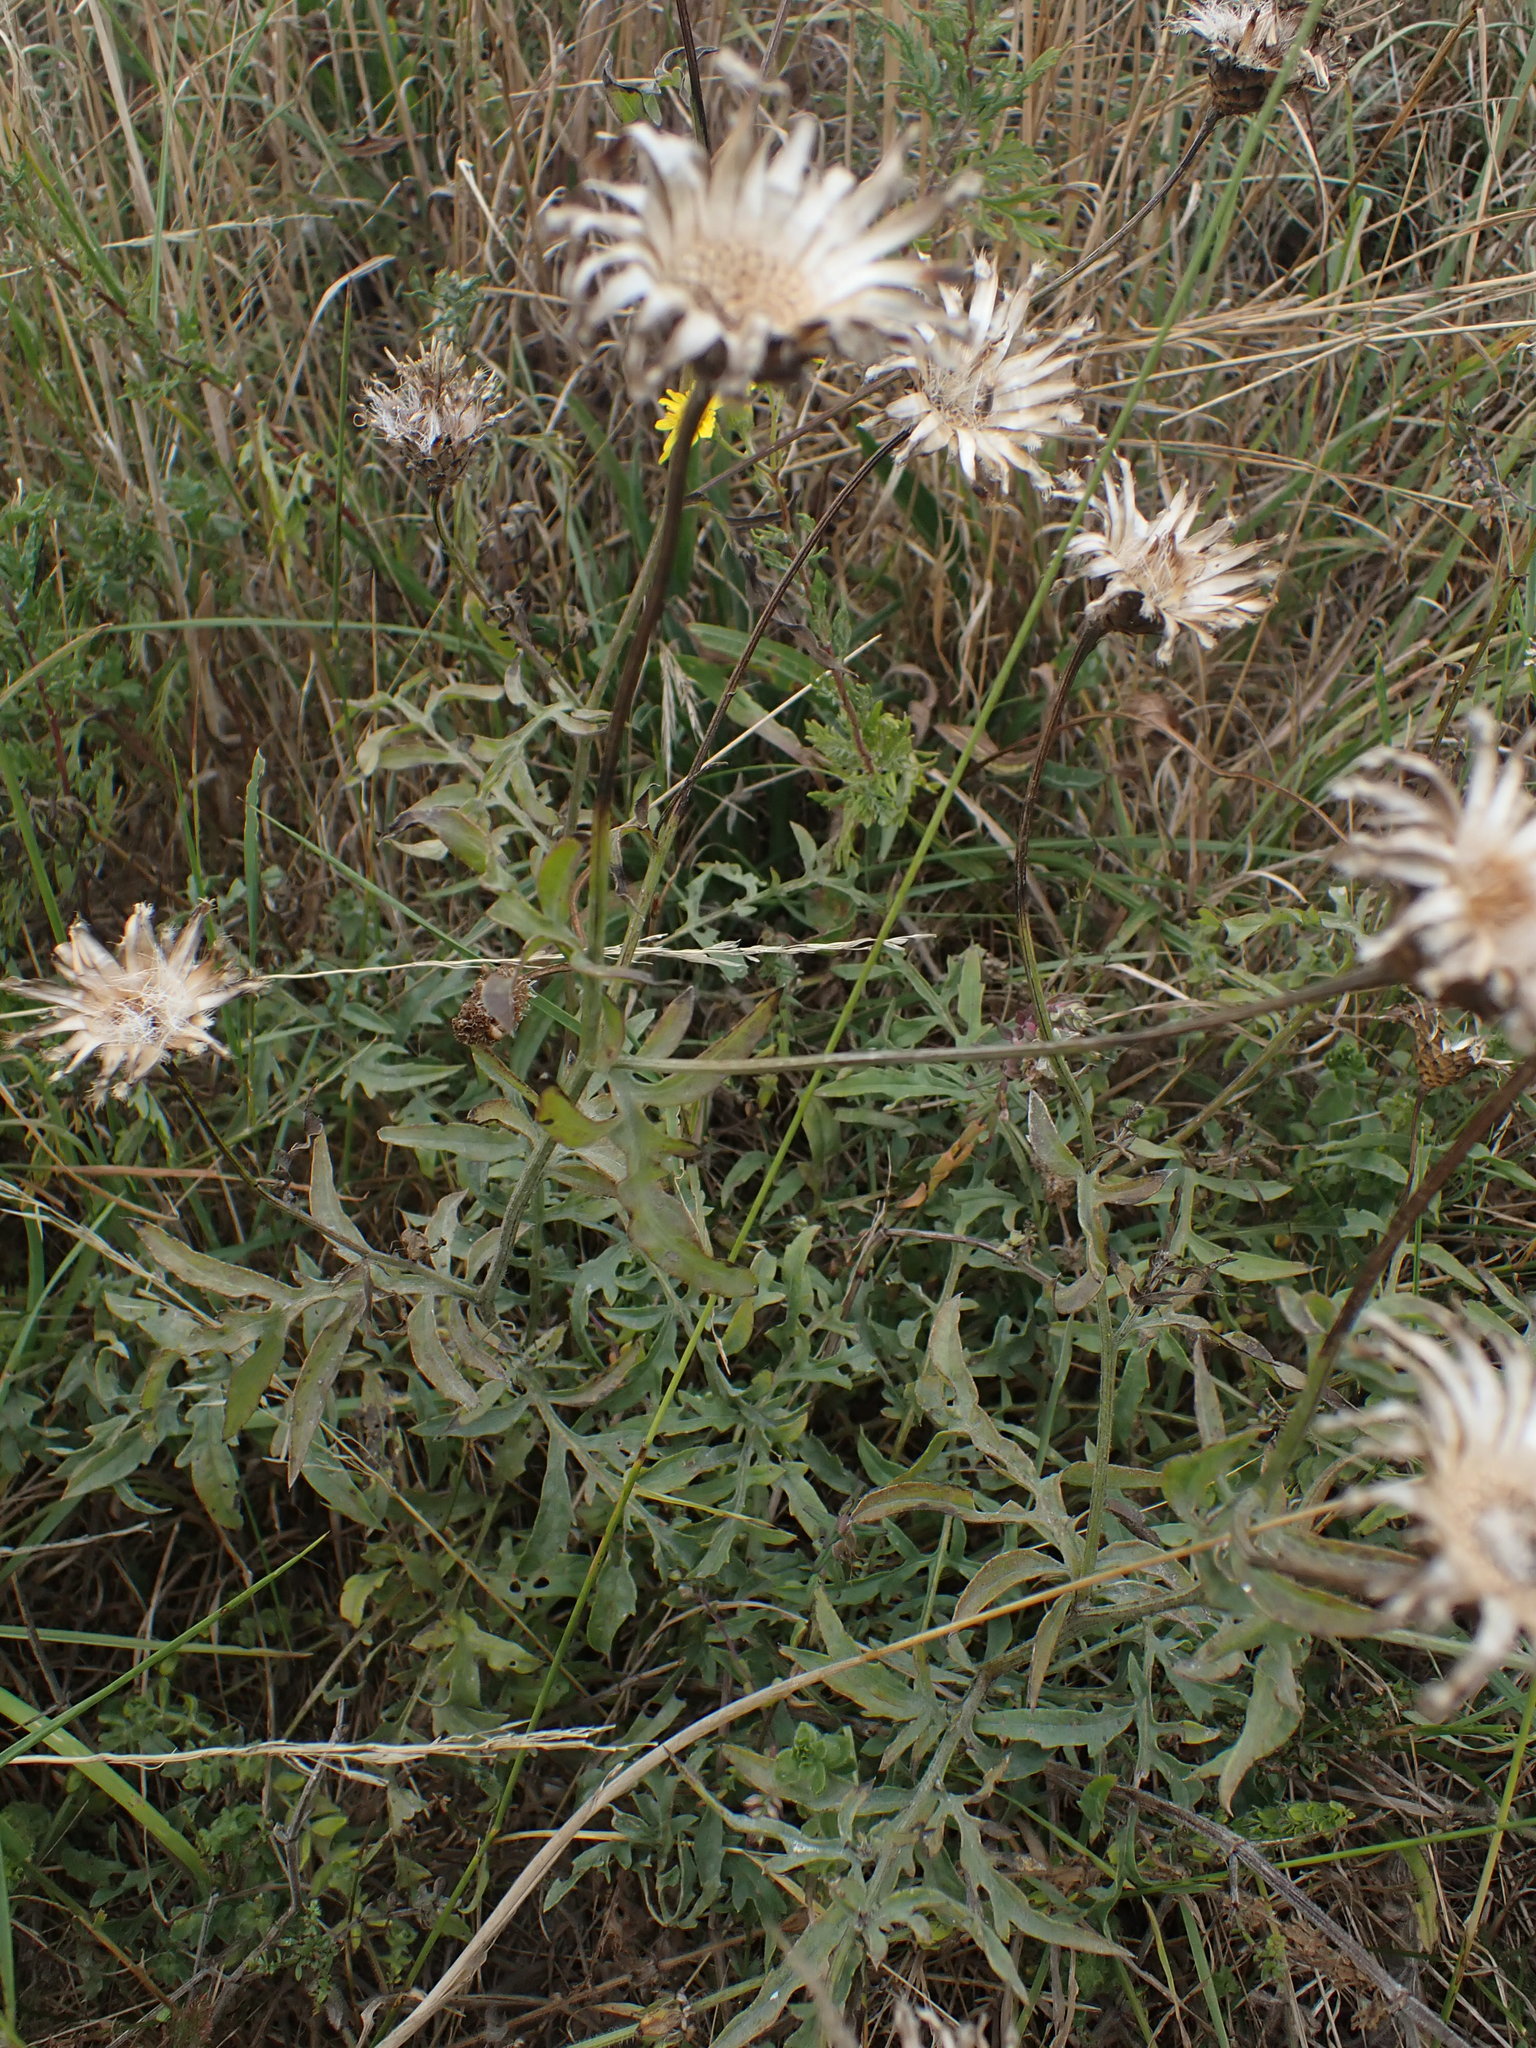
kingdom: Plantae
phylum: Tracheophyta
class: Magnoliopsida
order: Asterales
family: Asteraceae
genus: Centaurea
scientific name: Centaurea scabiosa
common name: Greater knapweed
